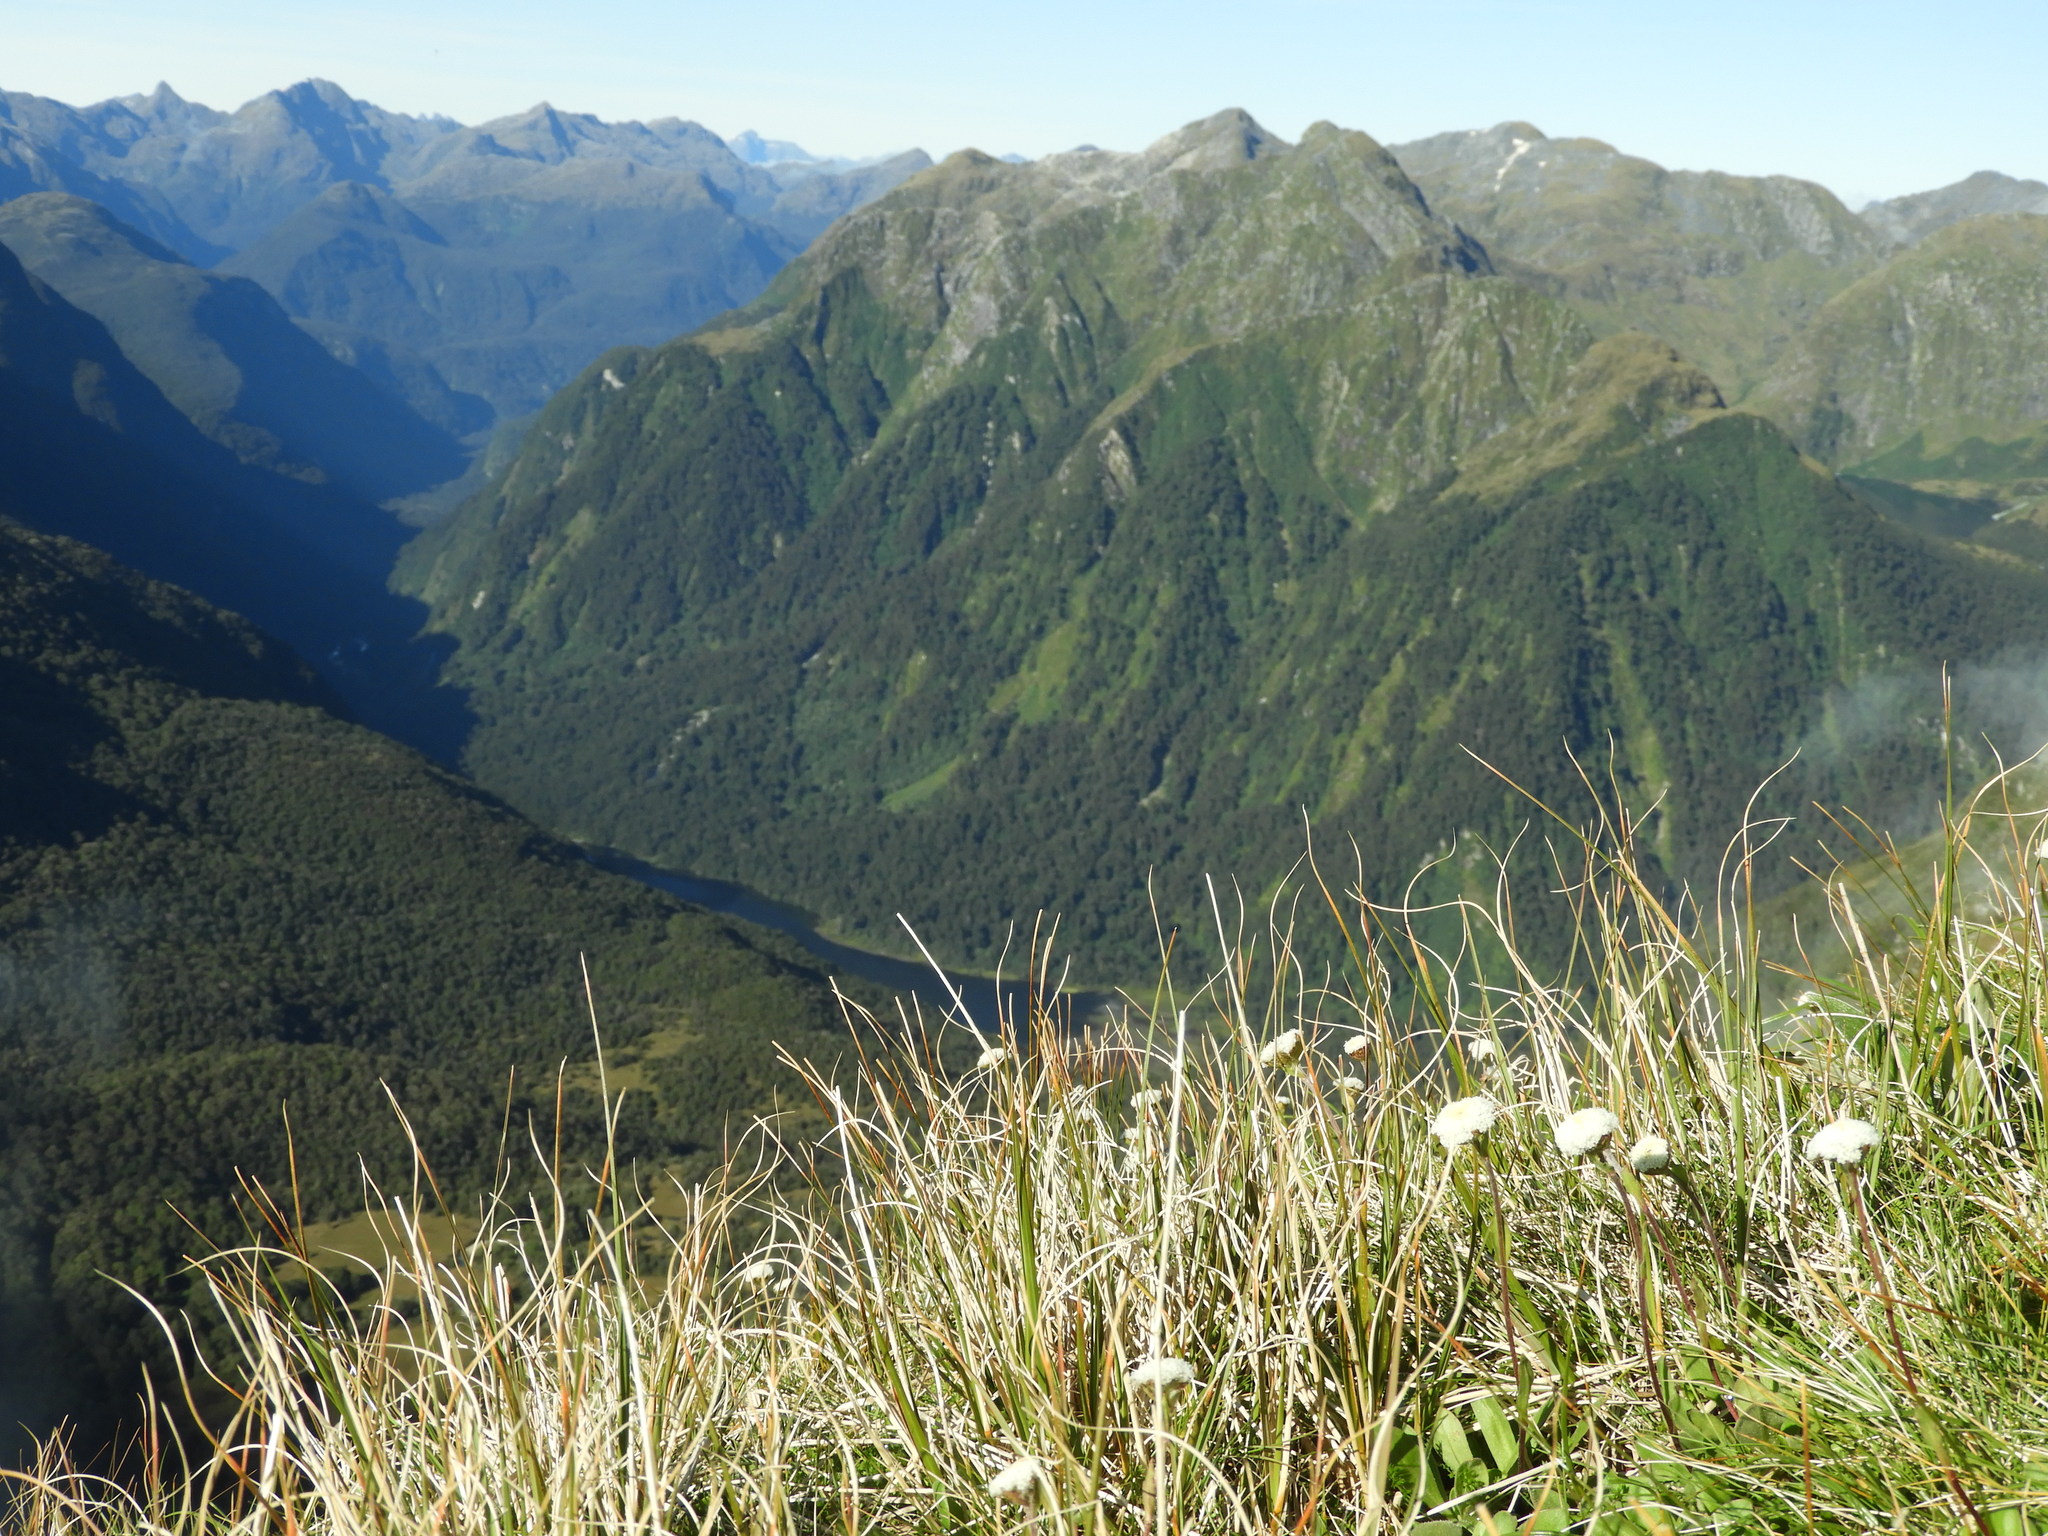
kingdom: Plantae
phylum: Tracheophyta
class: Magnoliopsida
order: Asterales
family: Asteraceae
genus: Craspedia
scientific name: Craspedia uniflora
